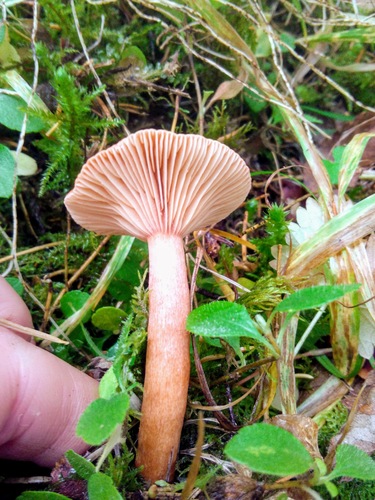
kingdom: Fungi
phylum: Basidiomycota
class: Agaricomycetes
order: Russulales
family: Russulaceae
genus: Lactarius
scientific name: Lactarius rufus
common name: Rufous milk-cap
